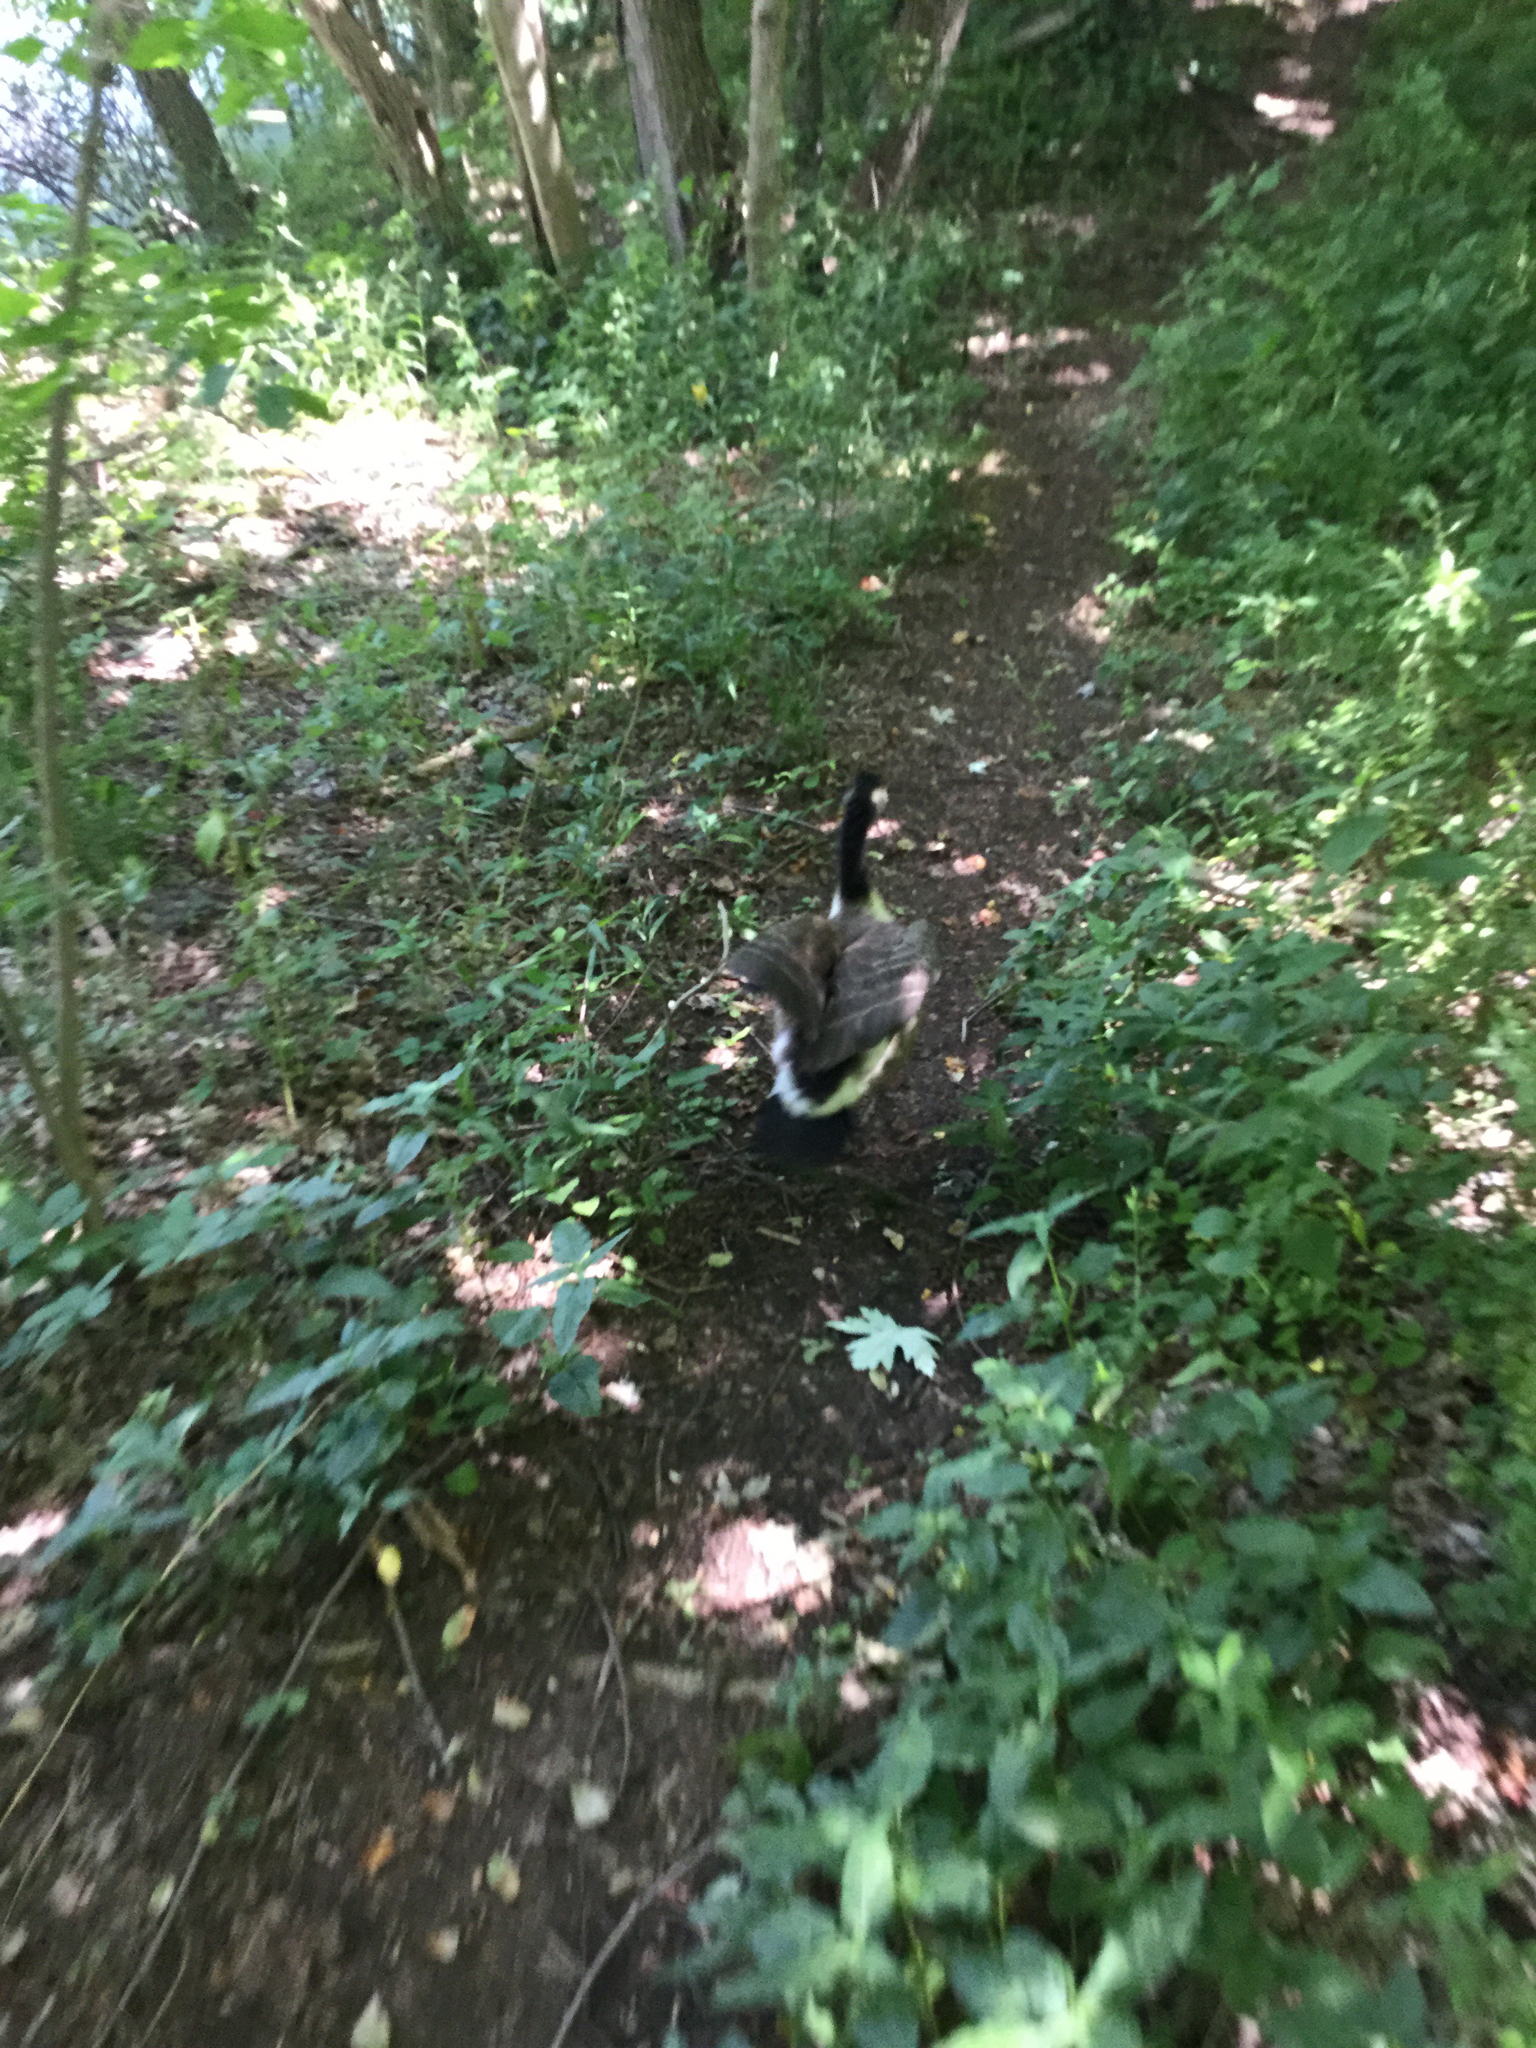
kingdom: Animalia
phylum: Chordata
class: Aves
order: Anseriformes
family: Anatidae
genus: Branta
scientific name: Branta canadensis
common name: Canada goose
